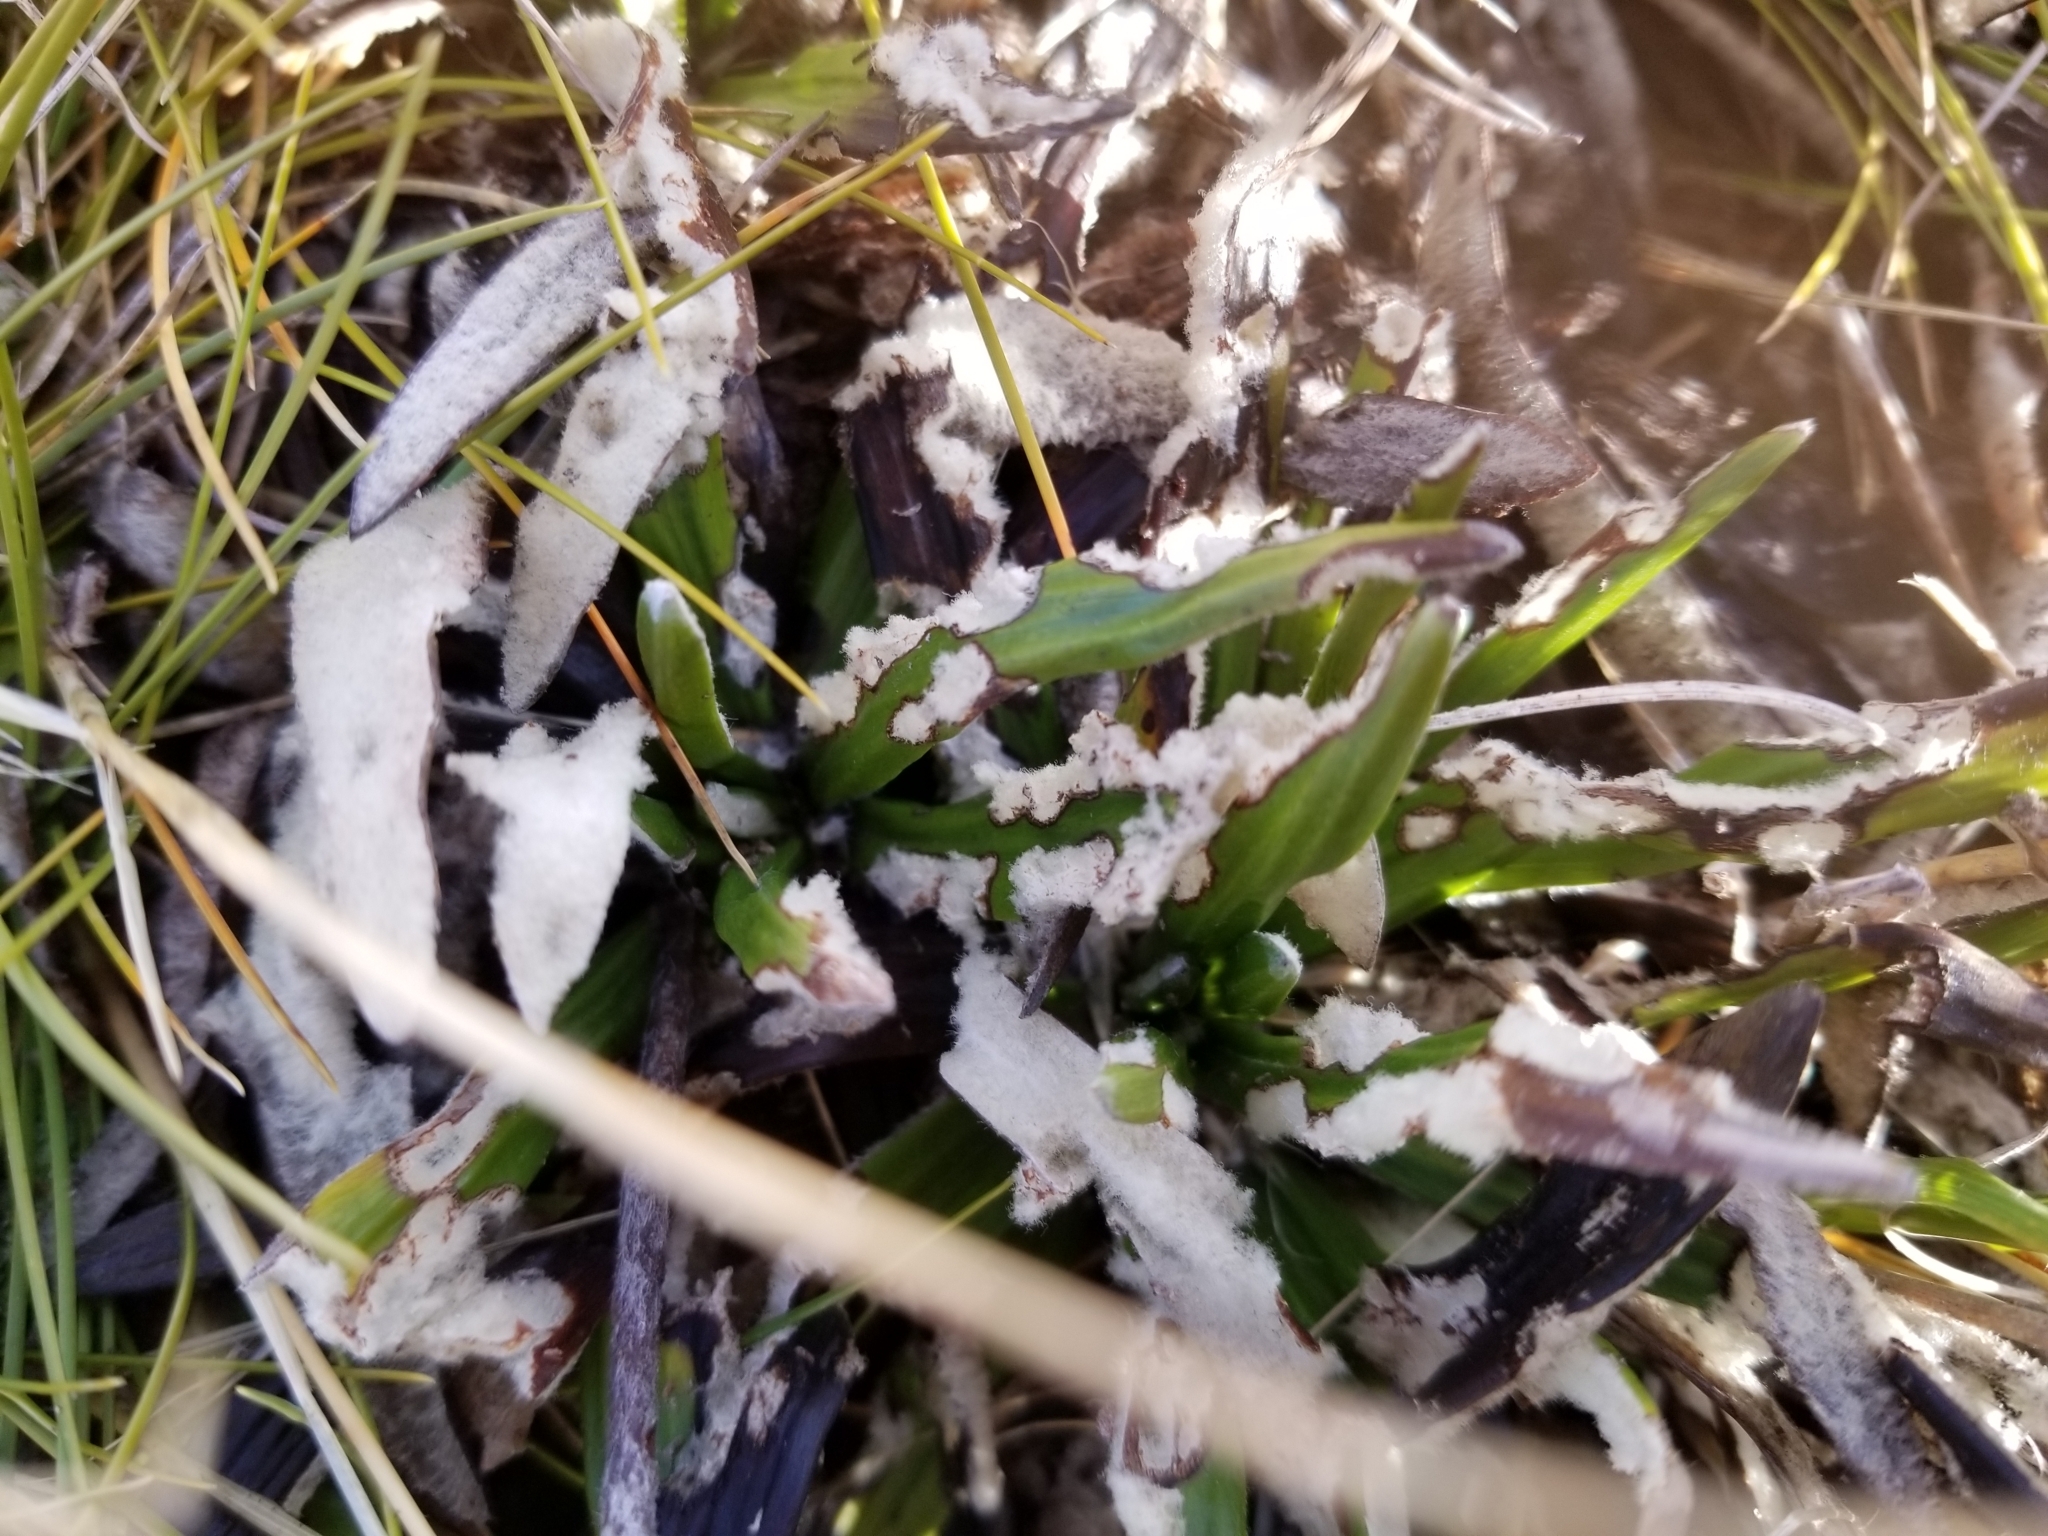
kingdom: Plantae
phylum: Tracheophyta
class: Magnoliopsida
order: Asterales
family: Asteraceae
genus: Celmisia
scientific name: Celmisia spectabilis
